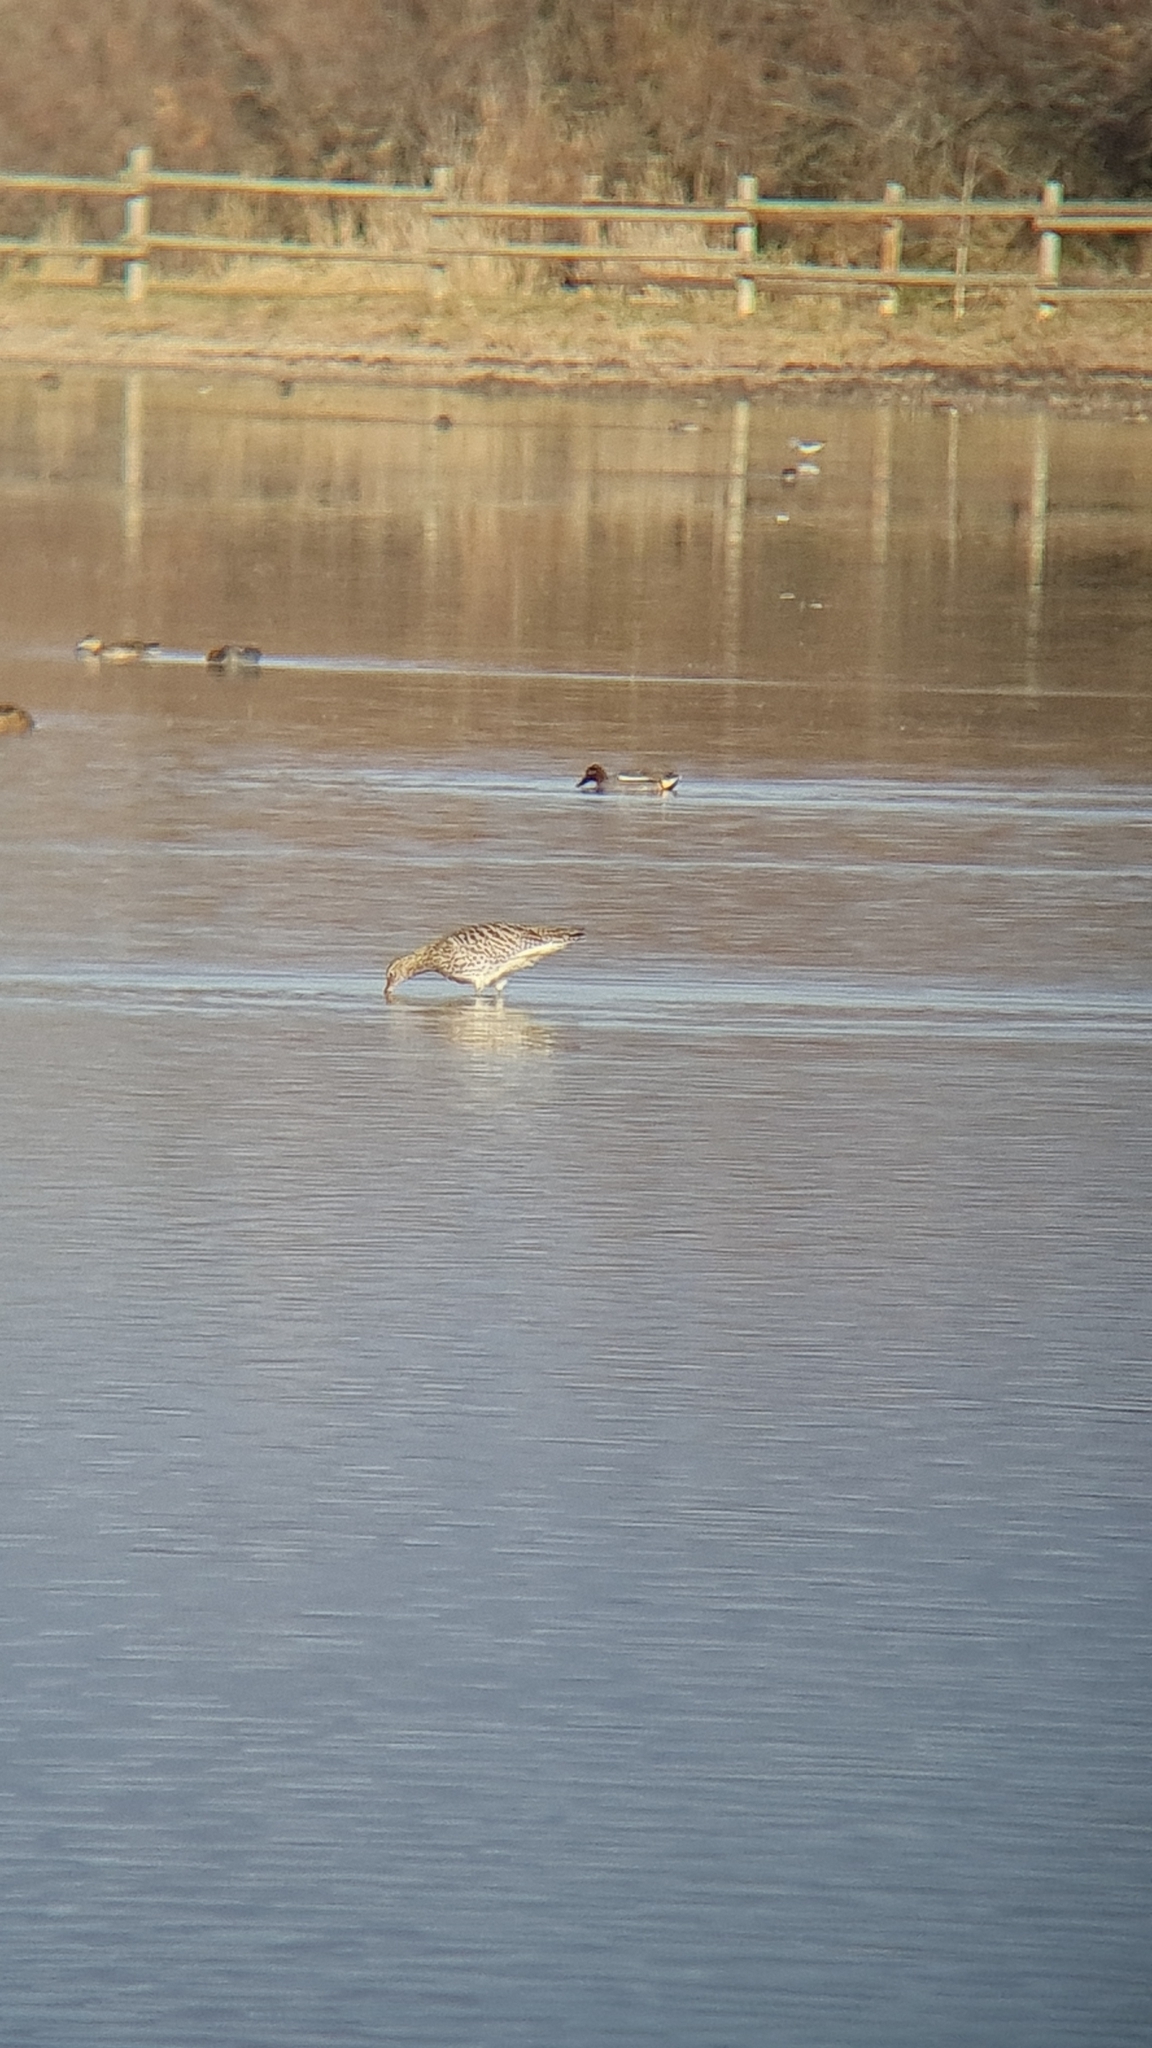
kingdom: Animalia
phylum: Chordata
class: Aves
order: Charadriiformes
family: Scolopacidae
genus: Numenius
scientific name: Numenius arquata
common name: Eurasian curlew
